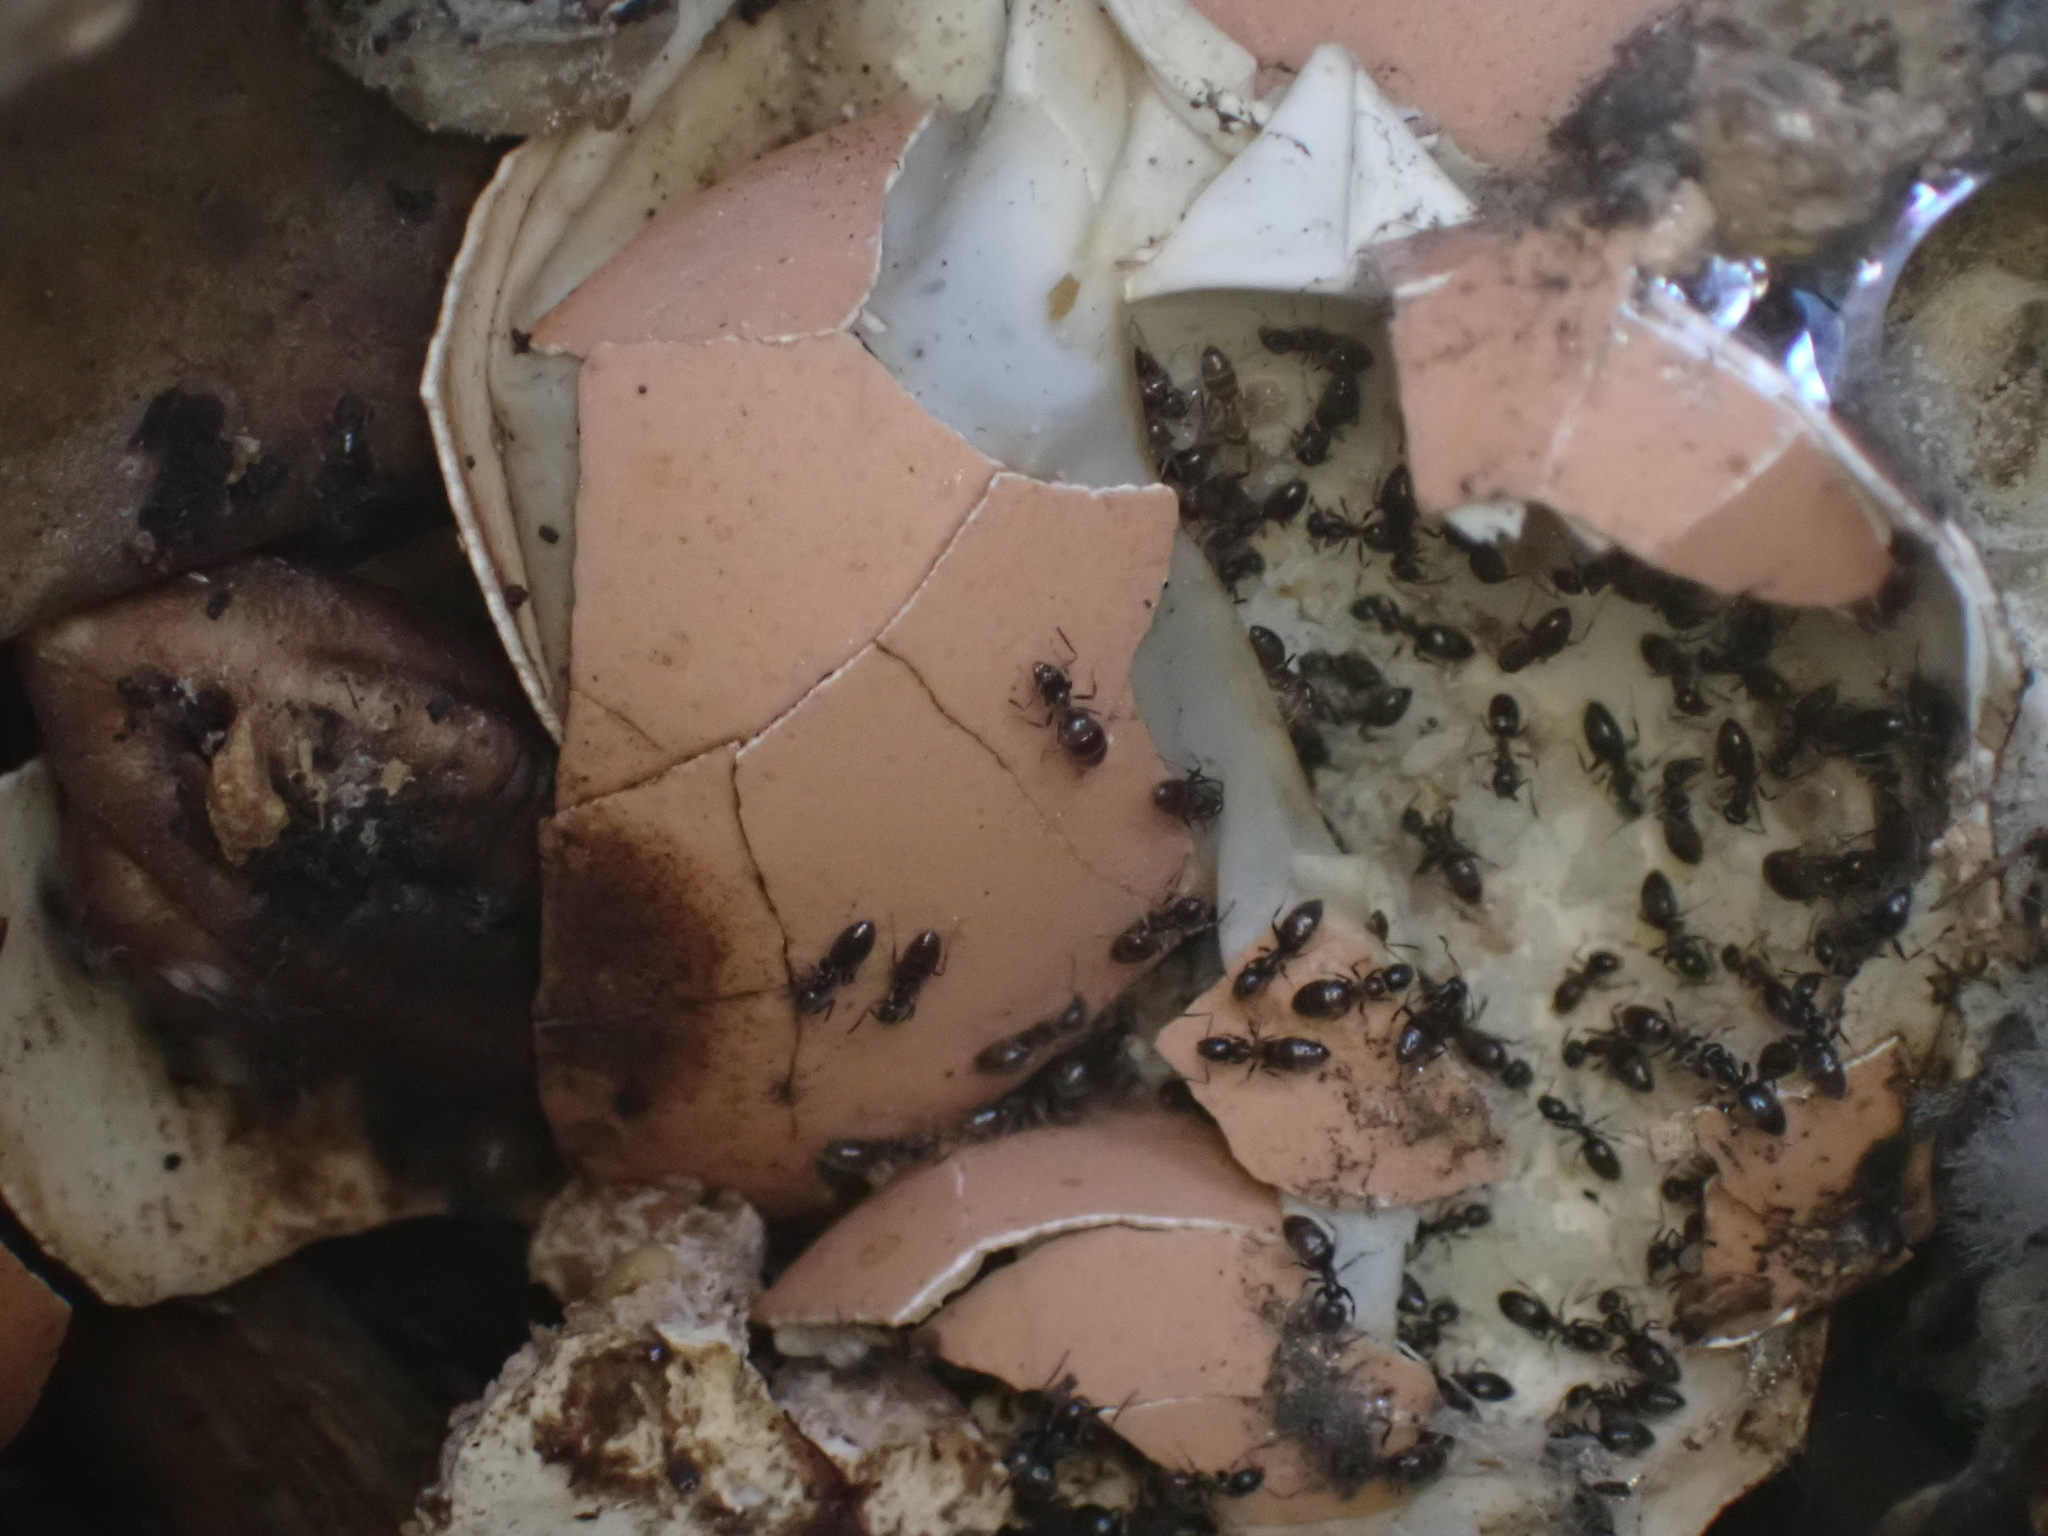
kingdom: Animalia
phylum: Arthropoda
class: Insecta
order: Hymenoptera
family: Formicidae
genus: Tapinoma
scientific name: Tapinoma sessile
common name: Odorous house ant
